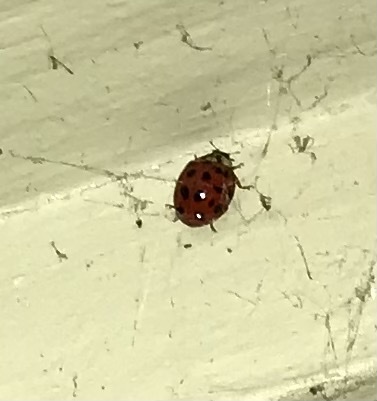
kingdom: Animalia
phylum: Arthropoda
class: Insecta
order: Coleoptera
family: Coccinellidae
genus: Harmonia
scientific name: Harmonia axyridis
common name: Harlequin ladybird
